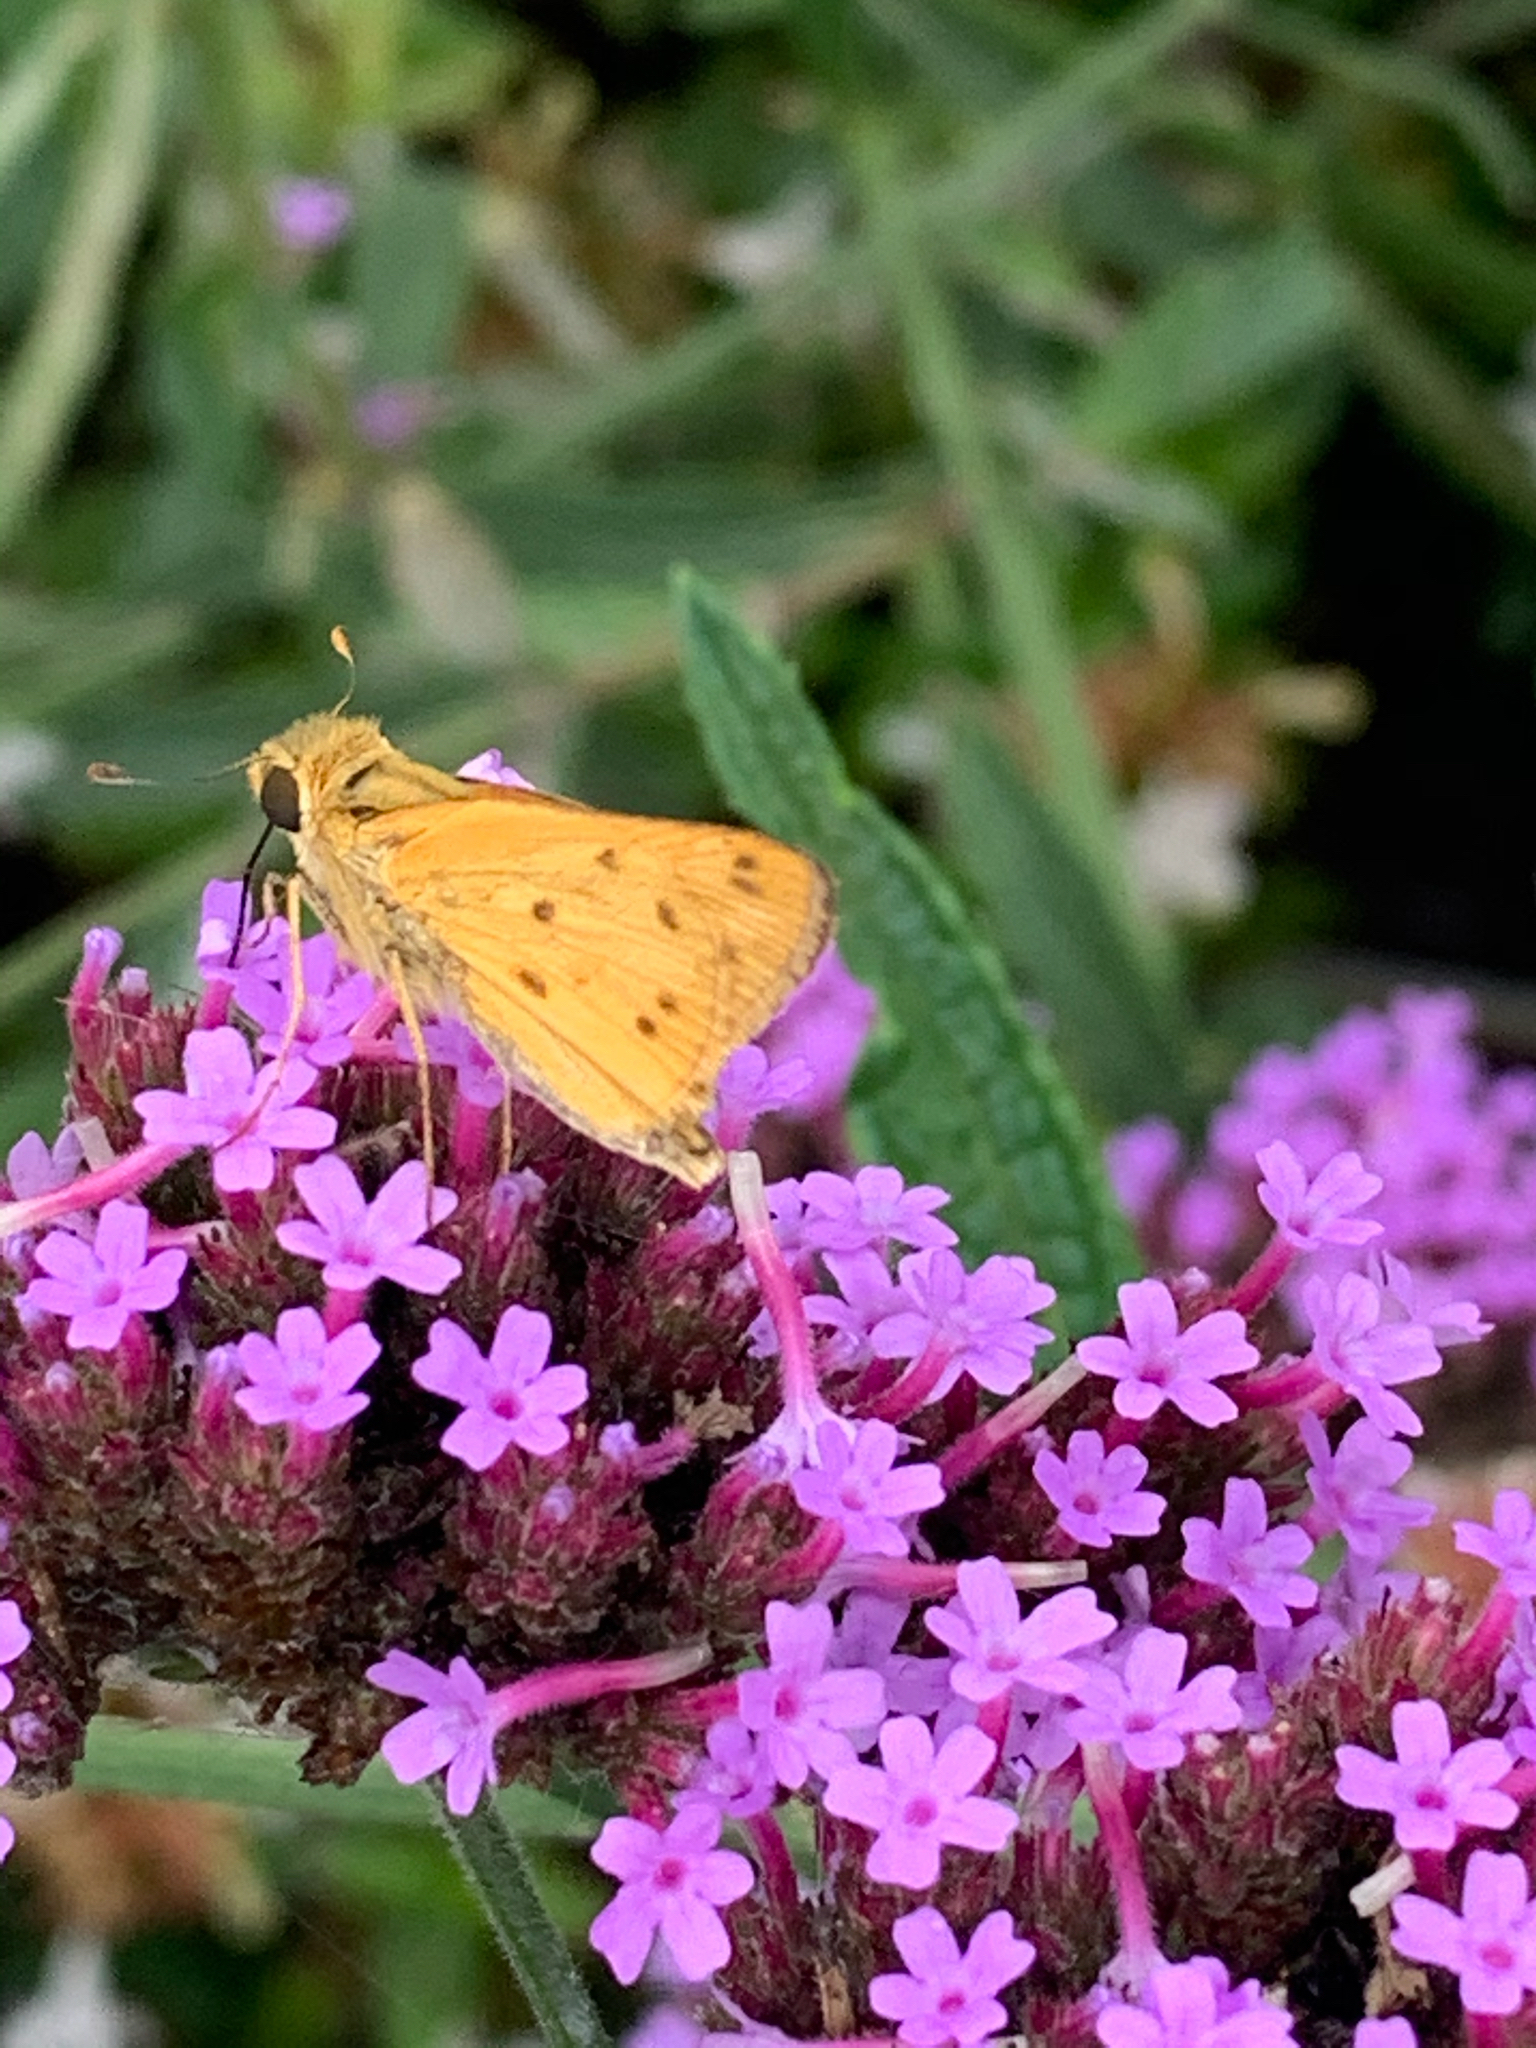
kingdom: Animalia
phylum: Arthropoda
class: Insecta
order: Lepidoptera
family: Hesperiidae
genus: Hylephila
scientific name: Hylephila phyleus
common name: Fiery skipper
